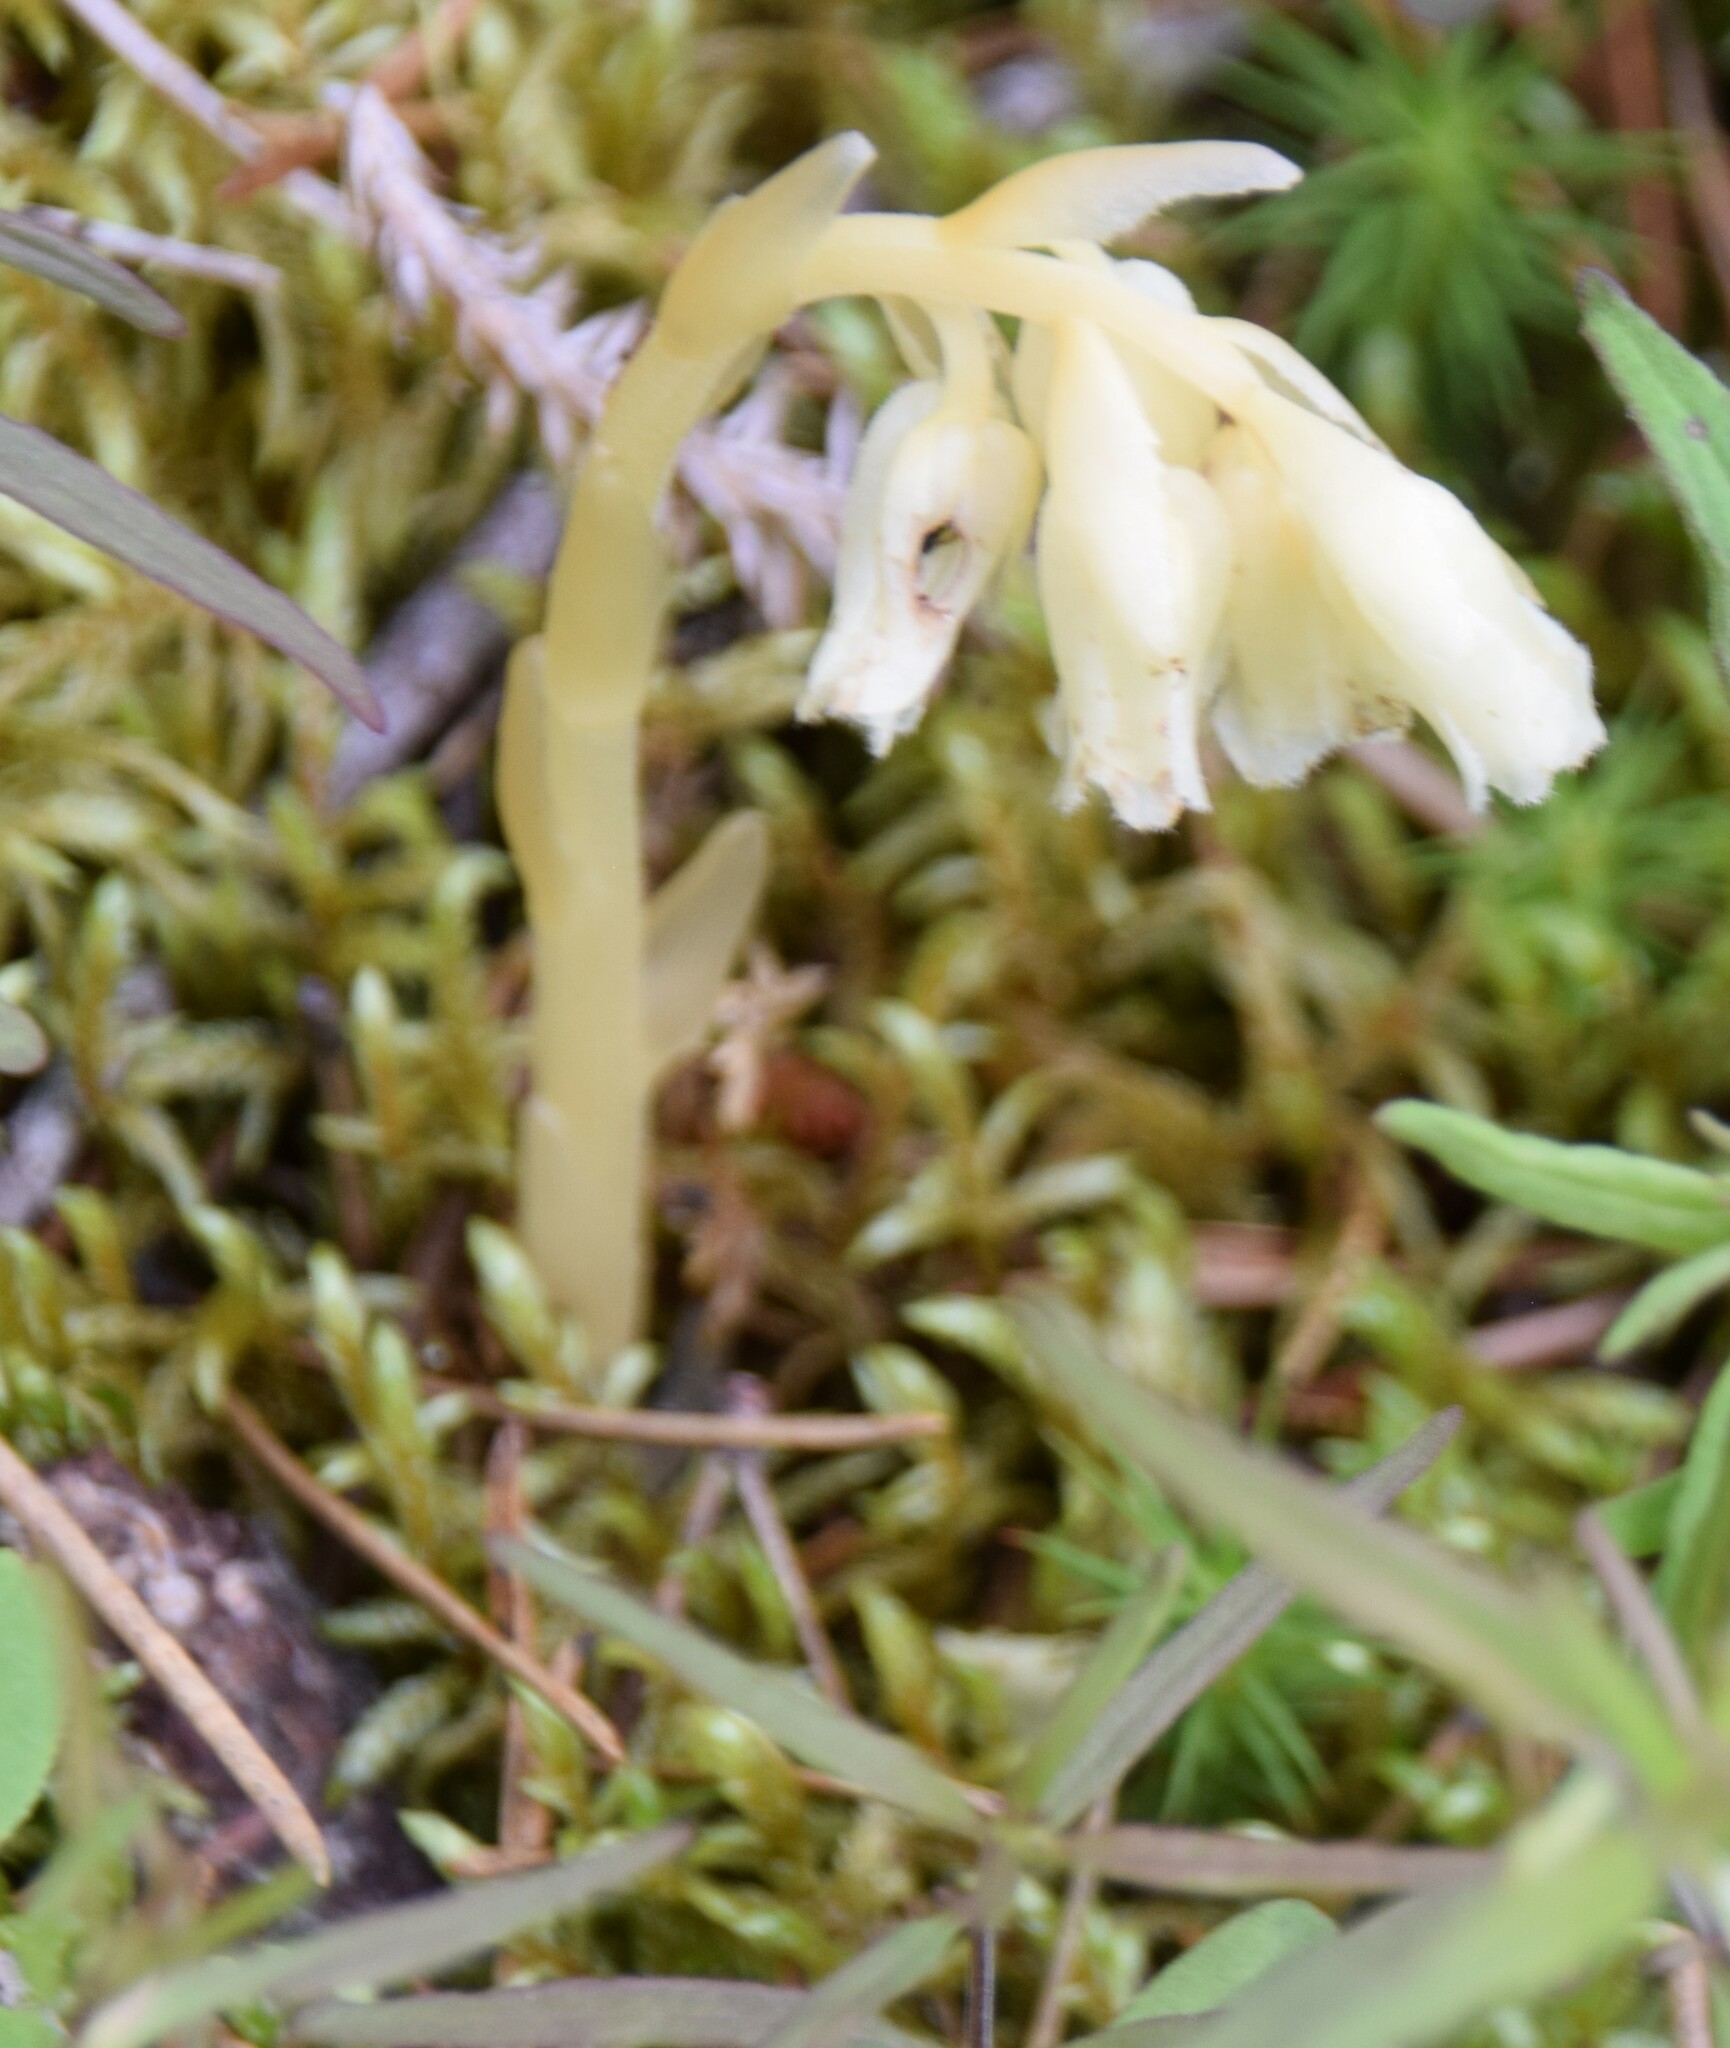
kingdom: Plantae
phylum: Tracheophyta
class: Magnoliopsida
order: Ericales
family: Ericaceae
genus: Hypopitys
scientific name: Hypopitys monotropa
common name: Yellow bird's-nest
